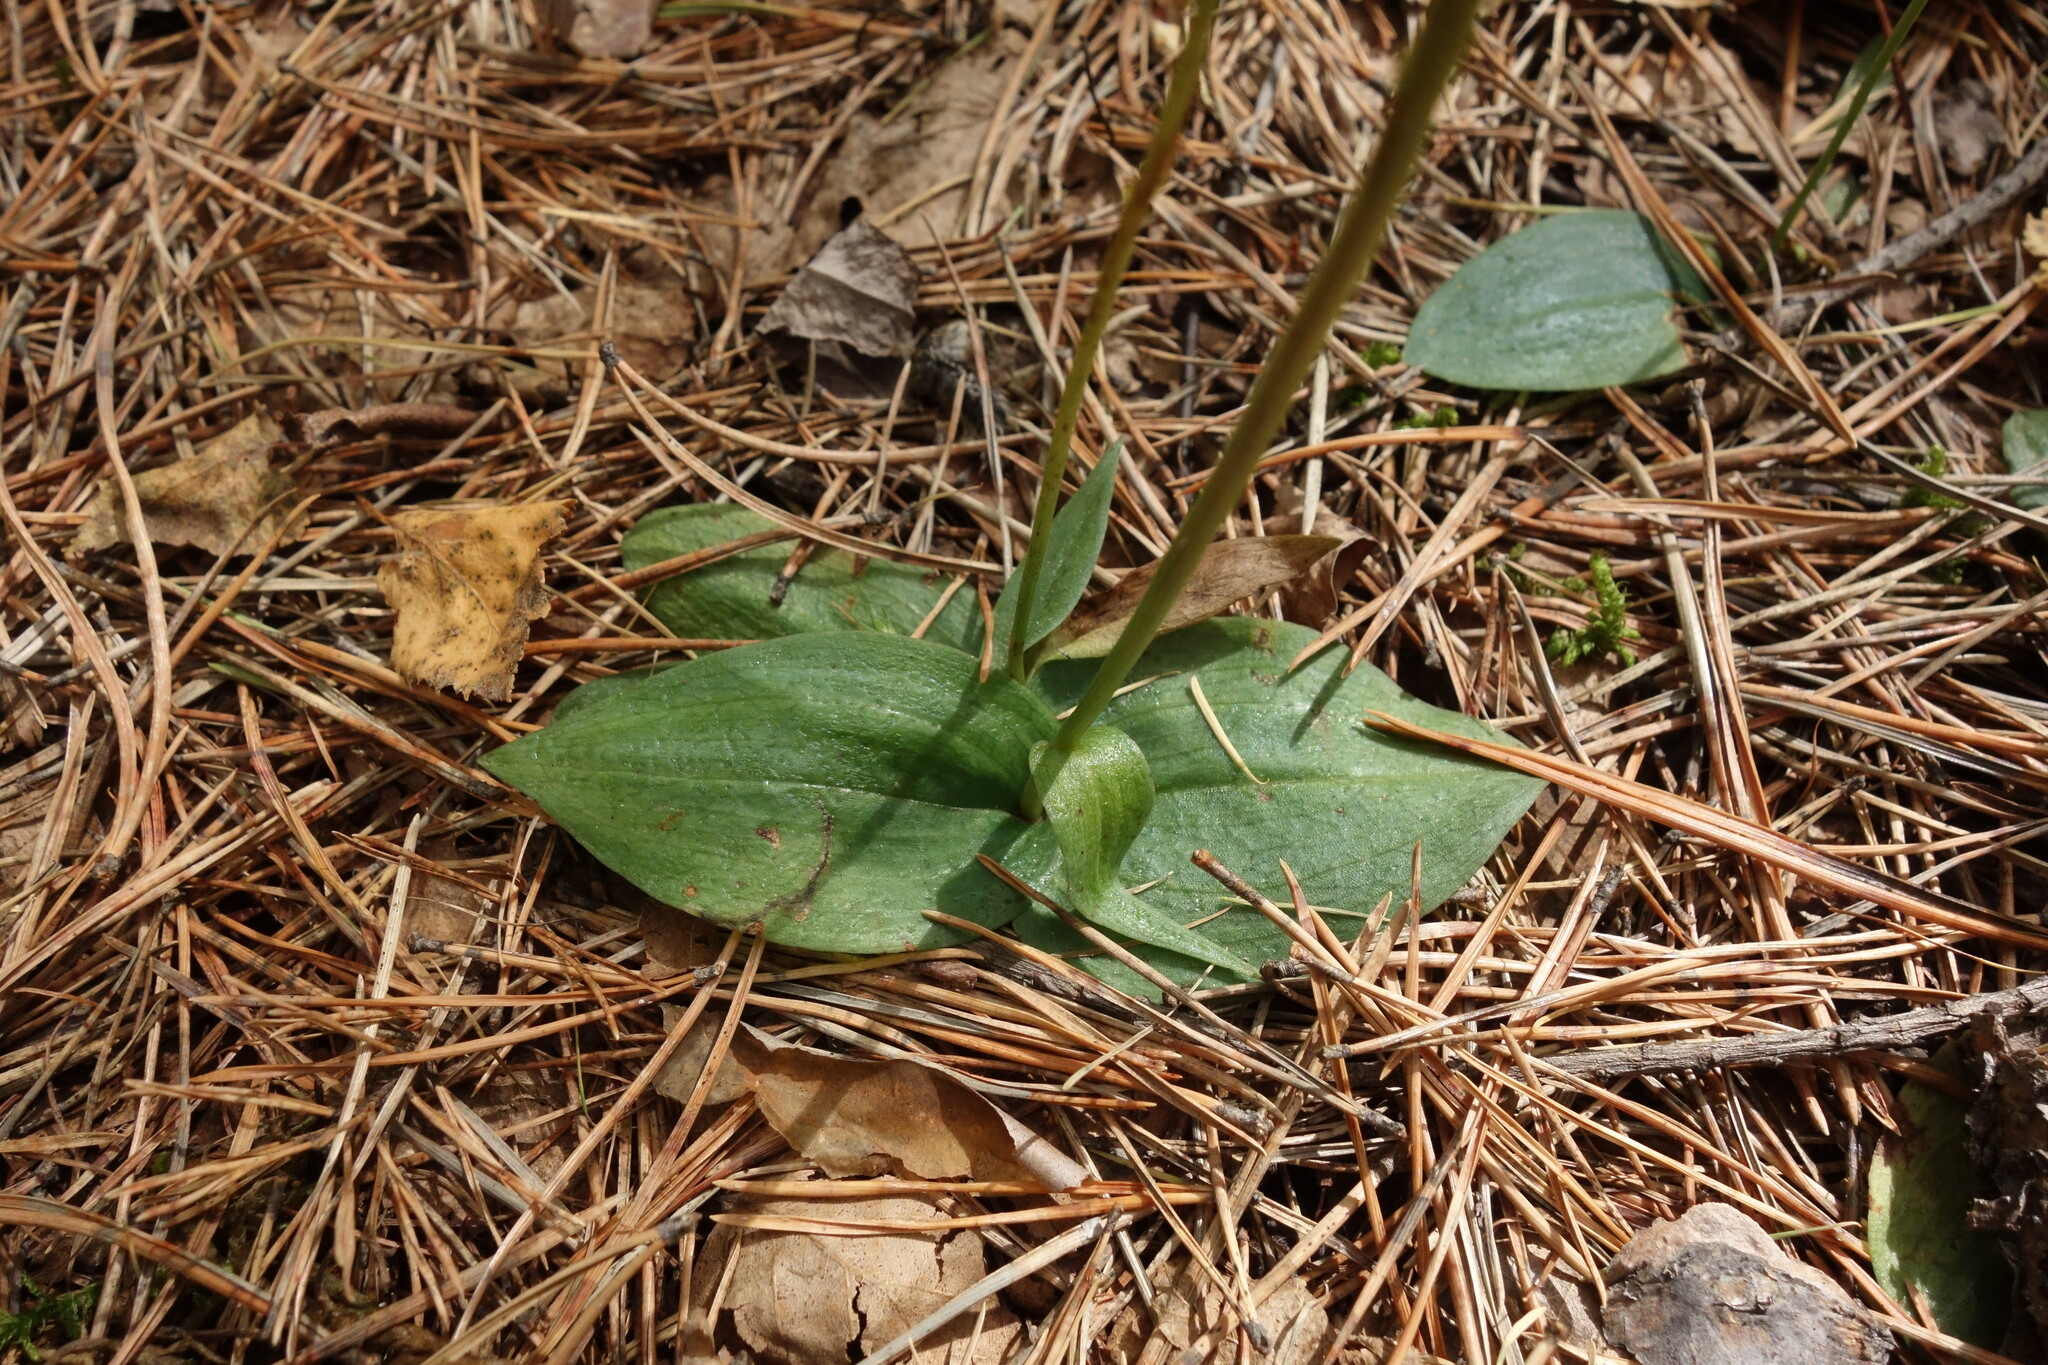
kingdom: Plantae
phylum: Tracheophyta
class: Liliopsida
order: Asparagales
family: Orchidaceae
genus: Hemipilia
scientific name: Hemipilia cucullata
